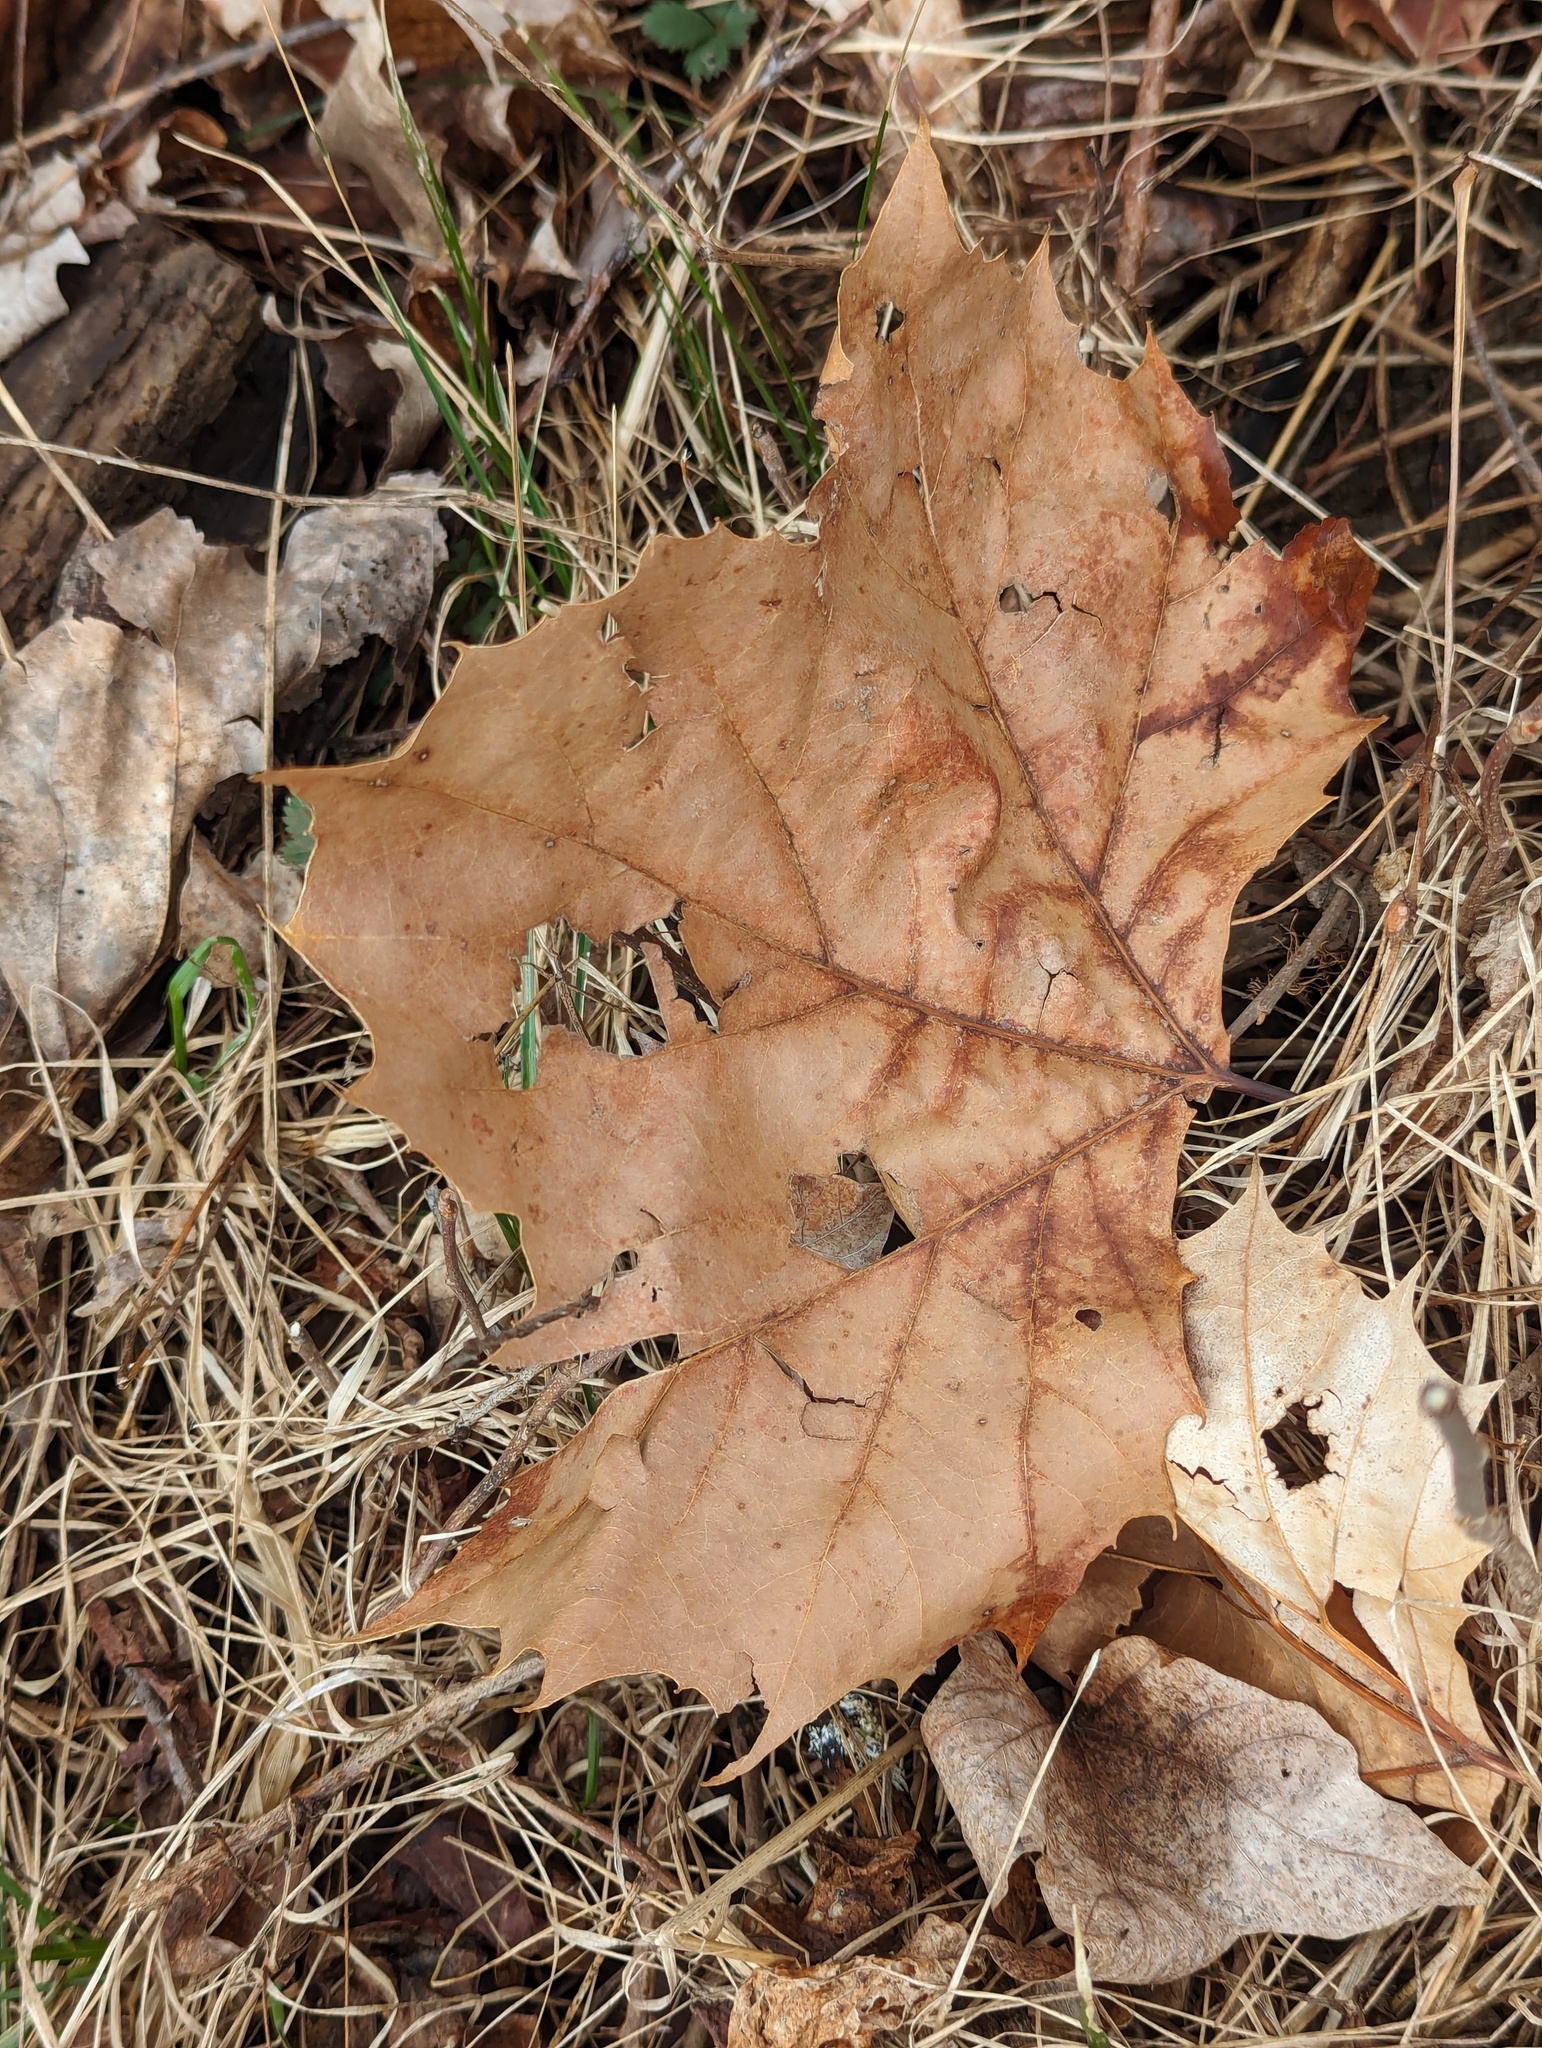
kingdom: Plantae
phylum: Tracheophyta
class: Magnoliopsida
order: Proteales
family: Platanaceae
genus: Platanus
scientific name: Platanus occidentalis
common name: American sycamore
